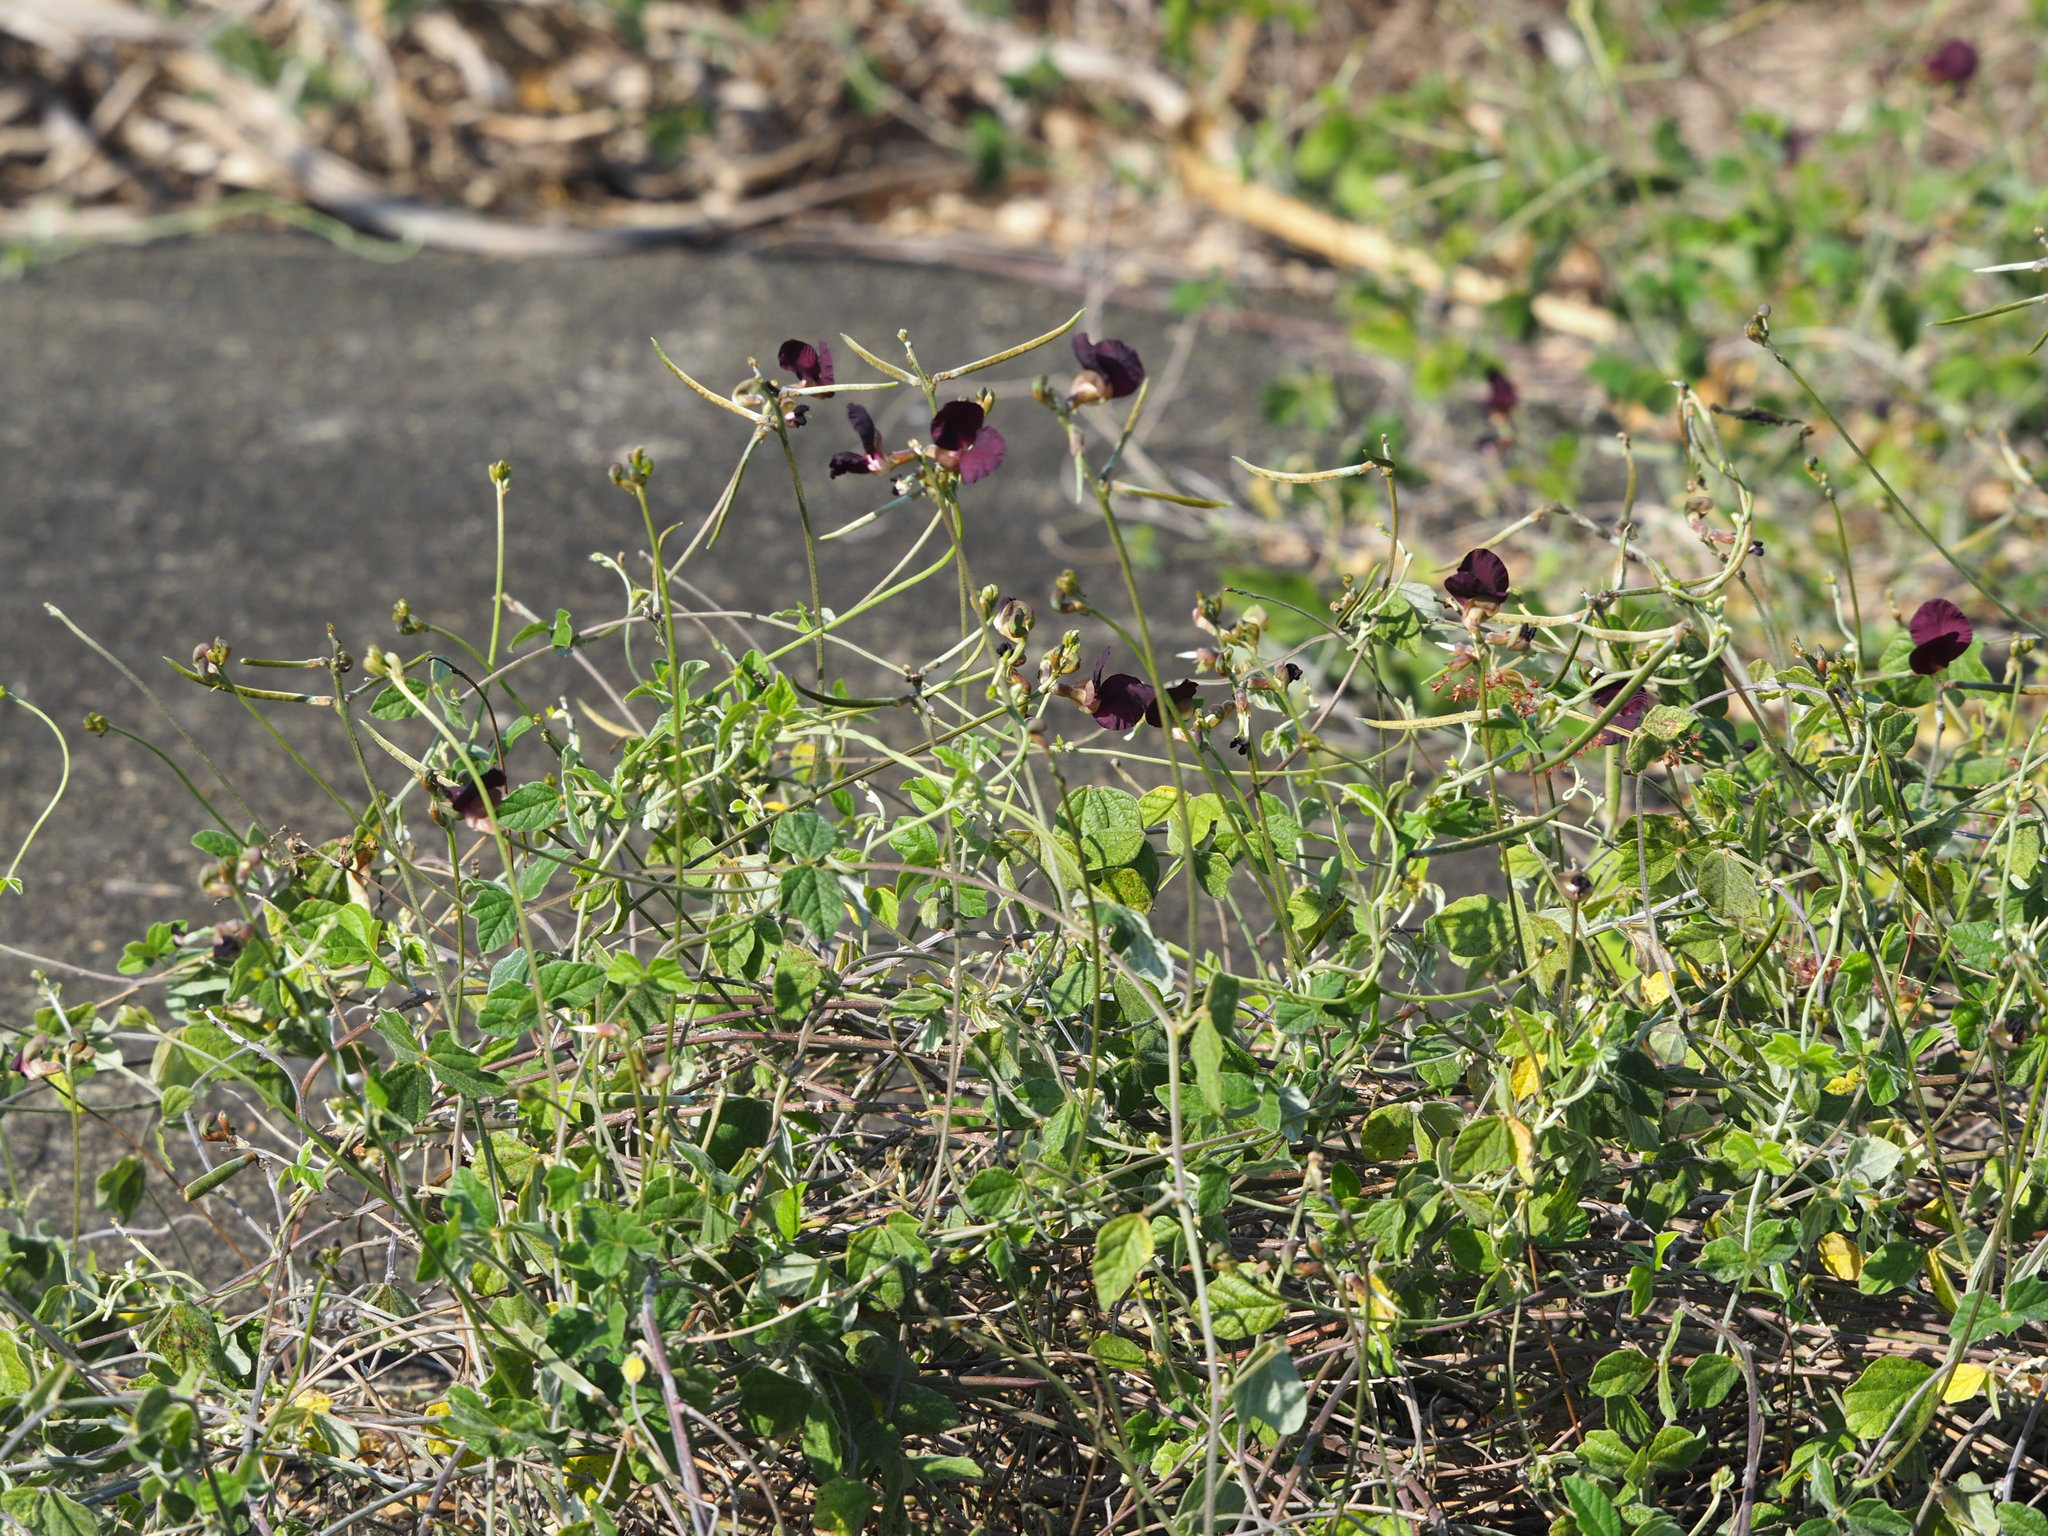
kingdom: Plantae
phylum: Tracheophyta
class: Magnoliopsida
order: Fabales
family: Fabaceae
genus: Macroptilium
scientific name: Macroptilium atropurpureum
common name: Purple bushbean
